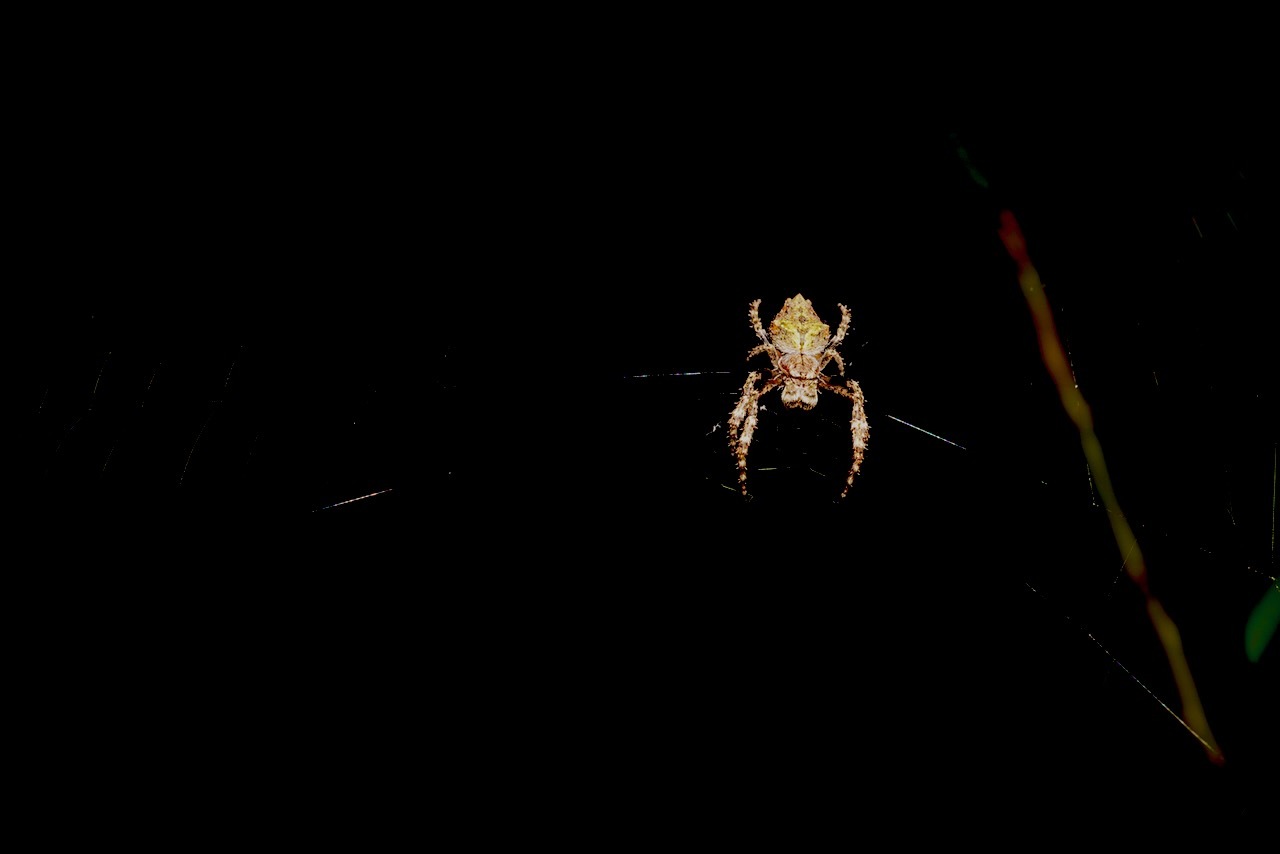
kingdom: Animalia
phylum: Arthropoda
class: Arachnida
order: Araneae
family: Araneidae
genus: Eriophora
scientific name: Eriophora pustulosa
